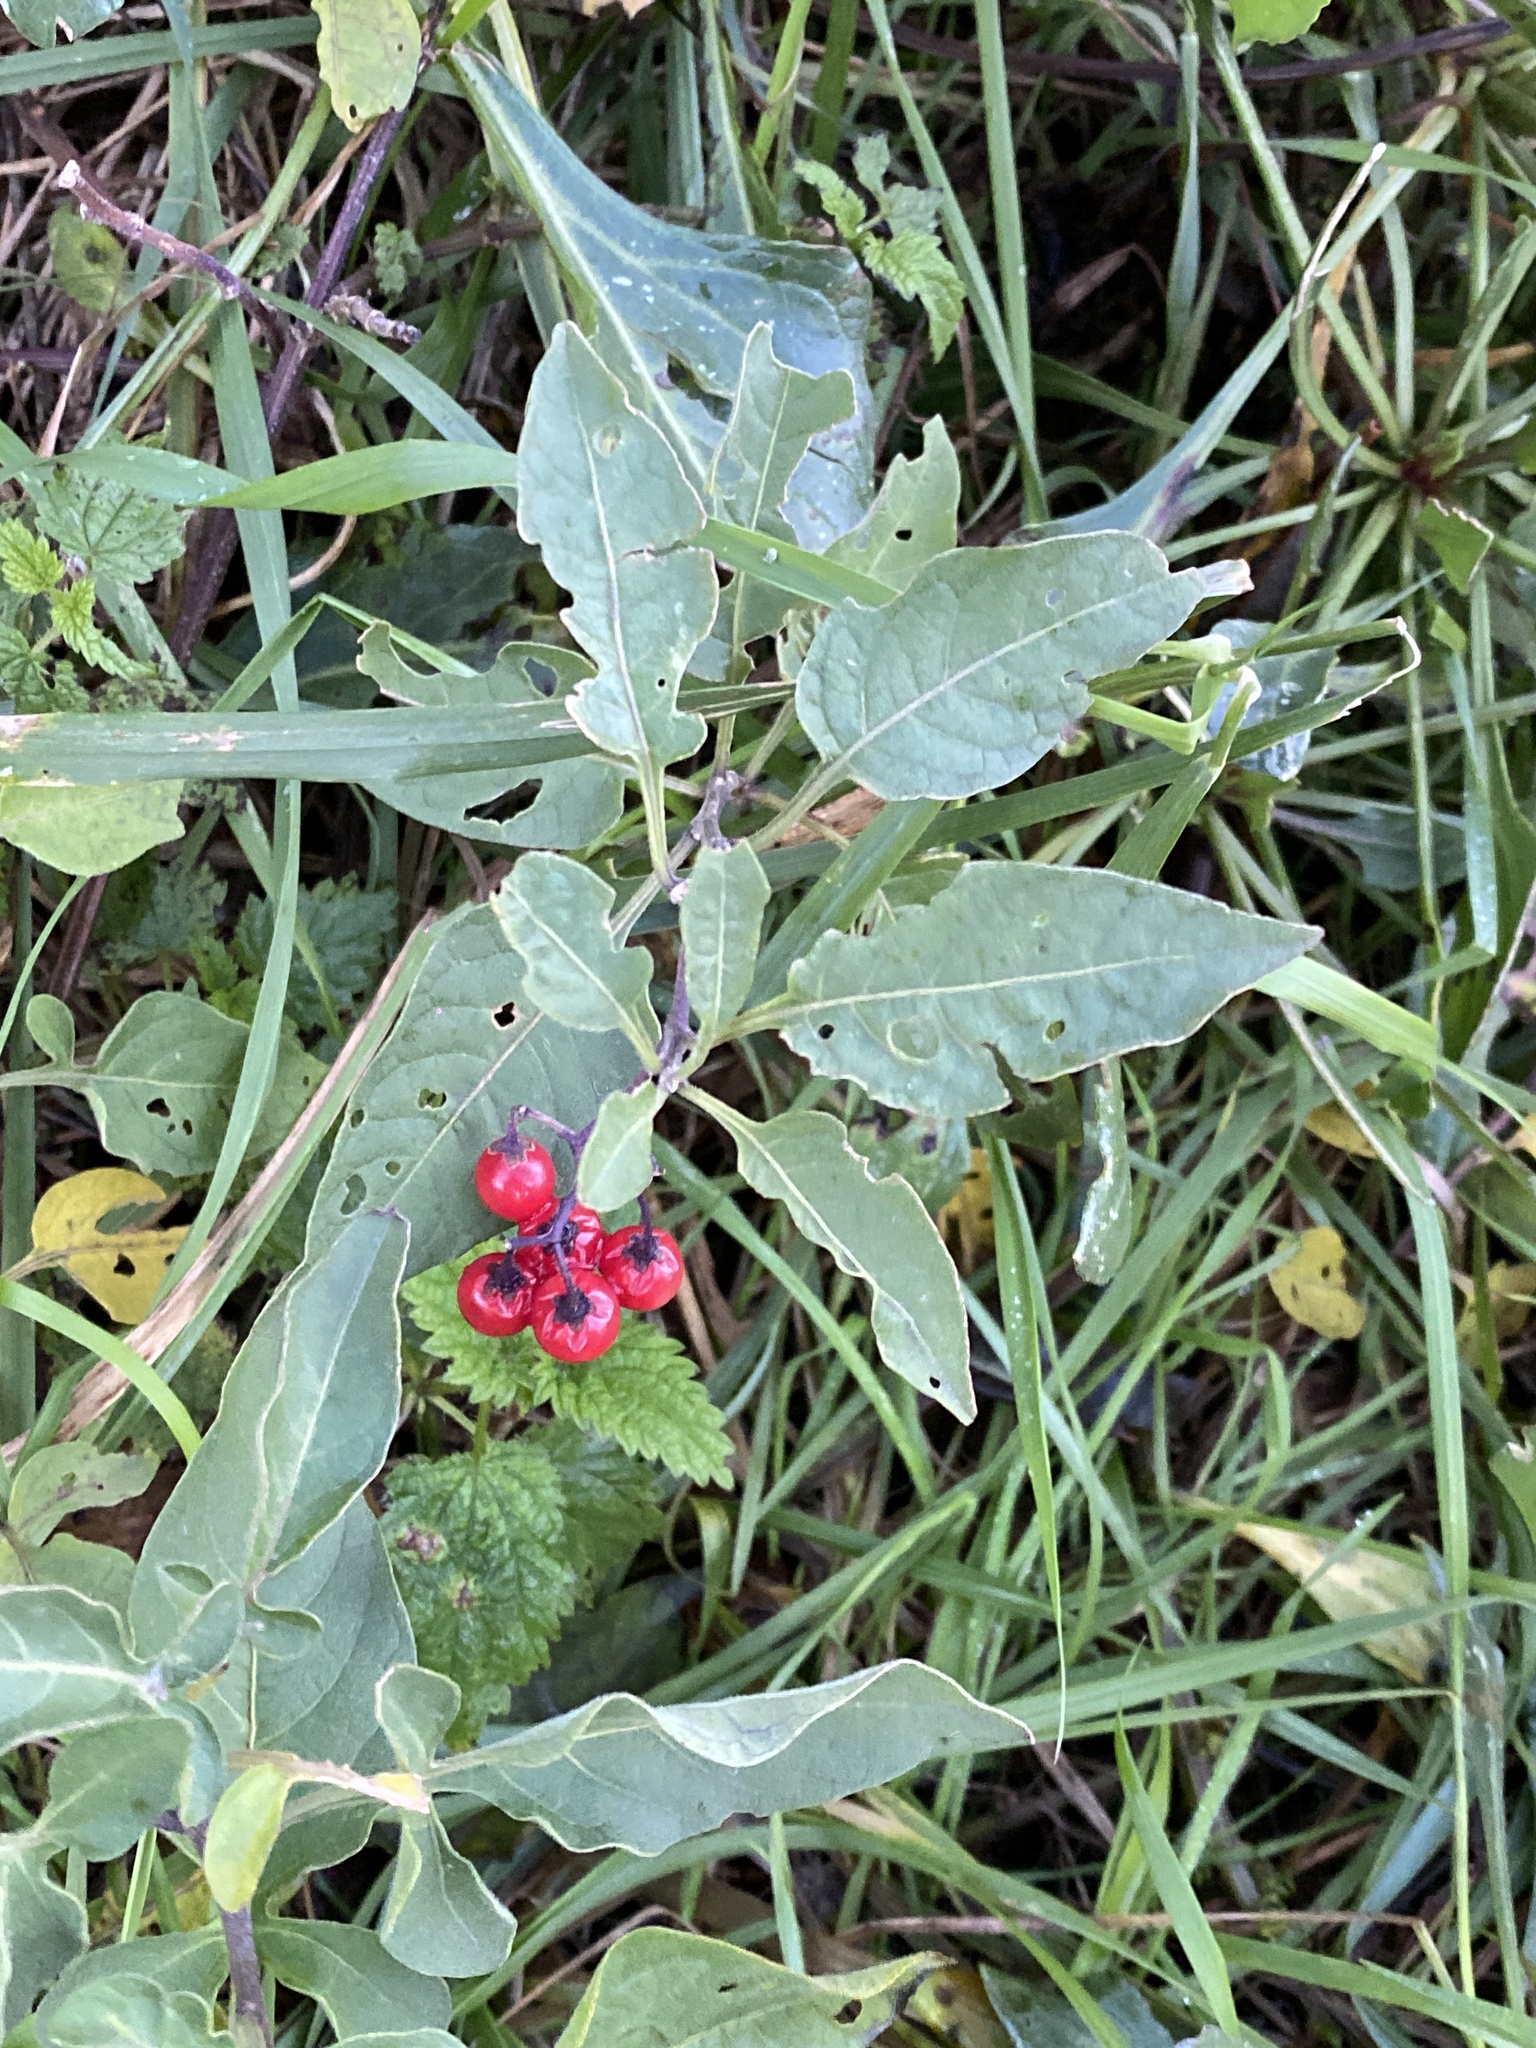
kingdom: Plantae
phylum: Tracheophyta
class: Magnoliopsida
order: Solanales
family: Solanaceae
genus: Solanum
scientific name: Solanum dulcamara
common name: Climbing nightshade
